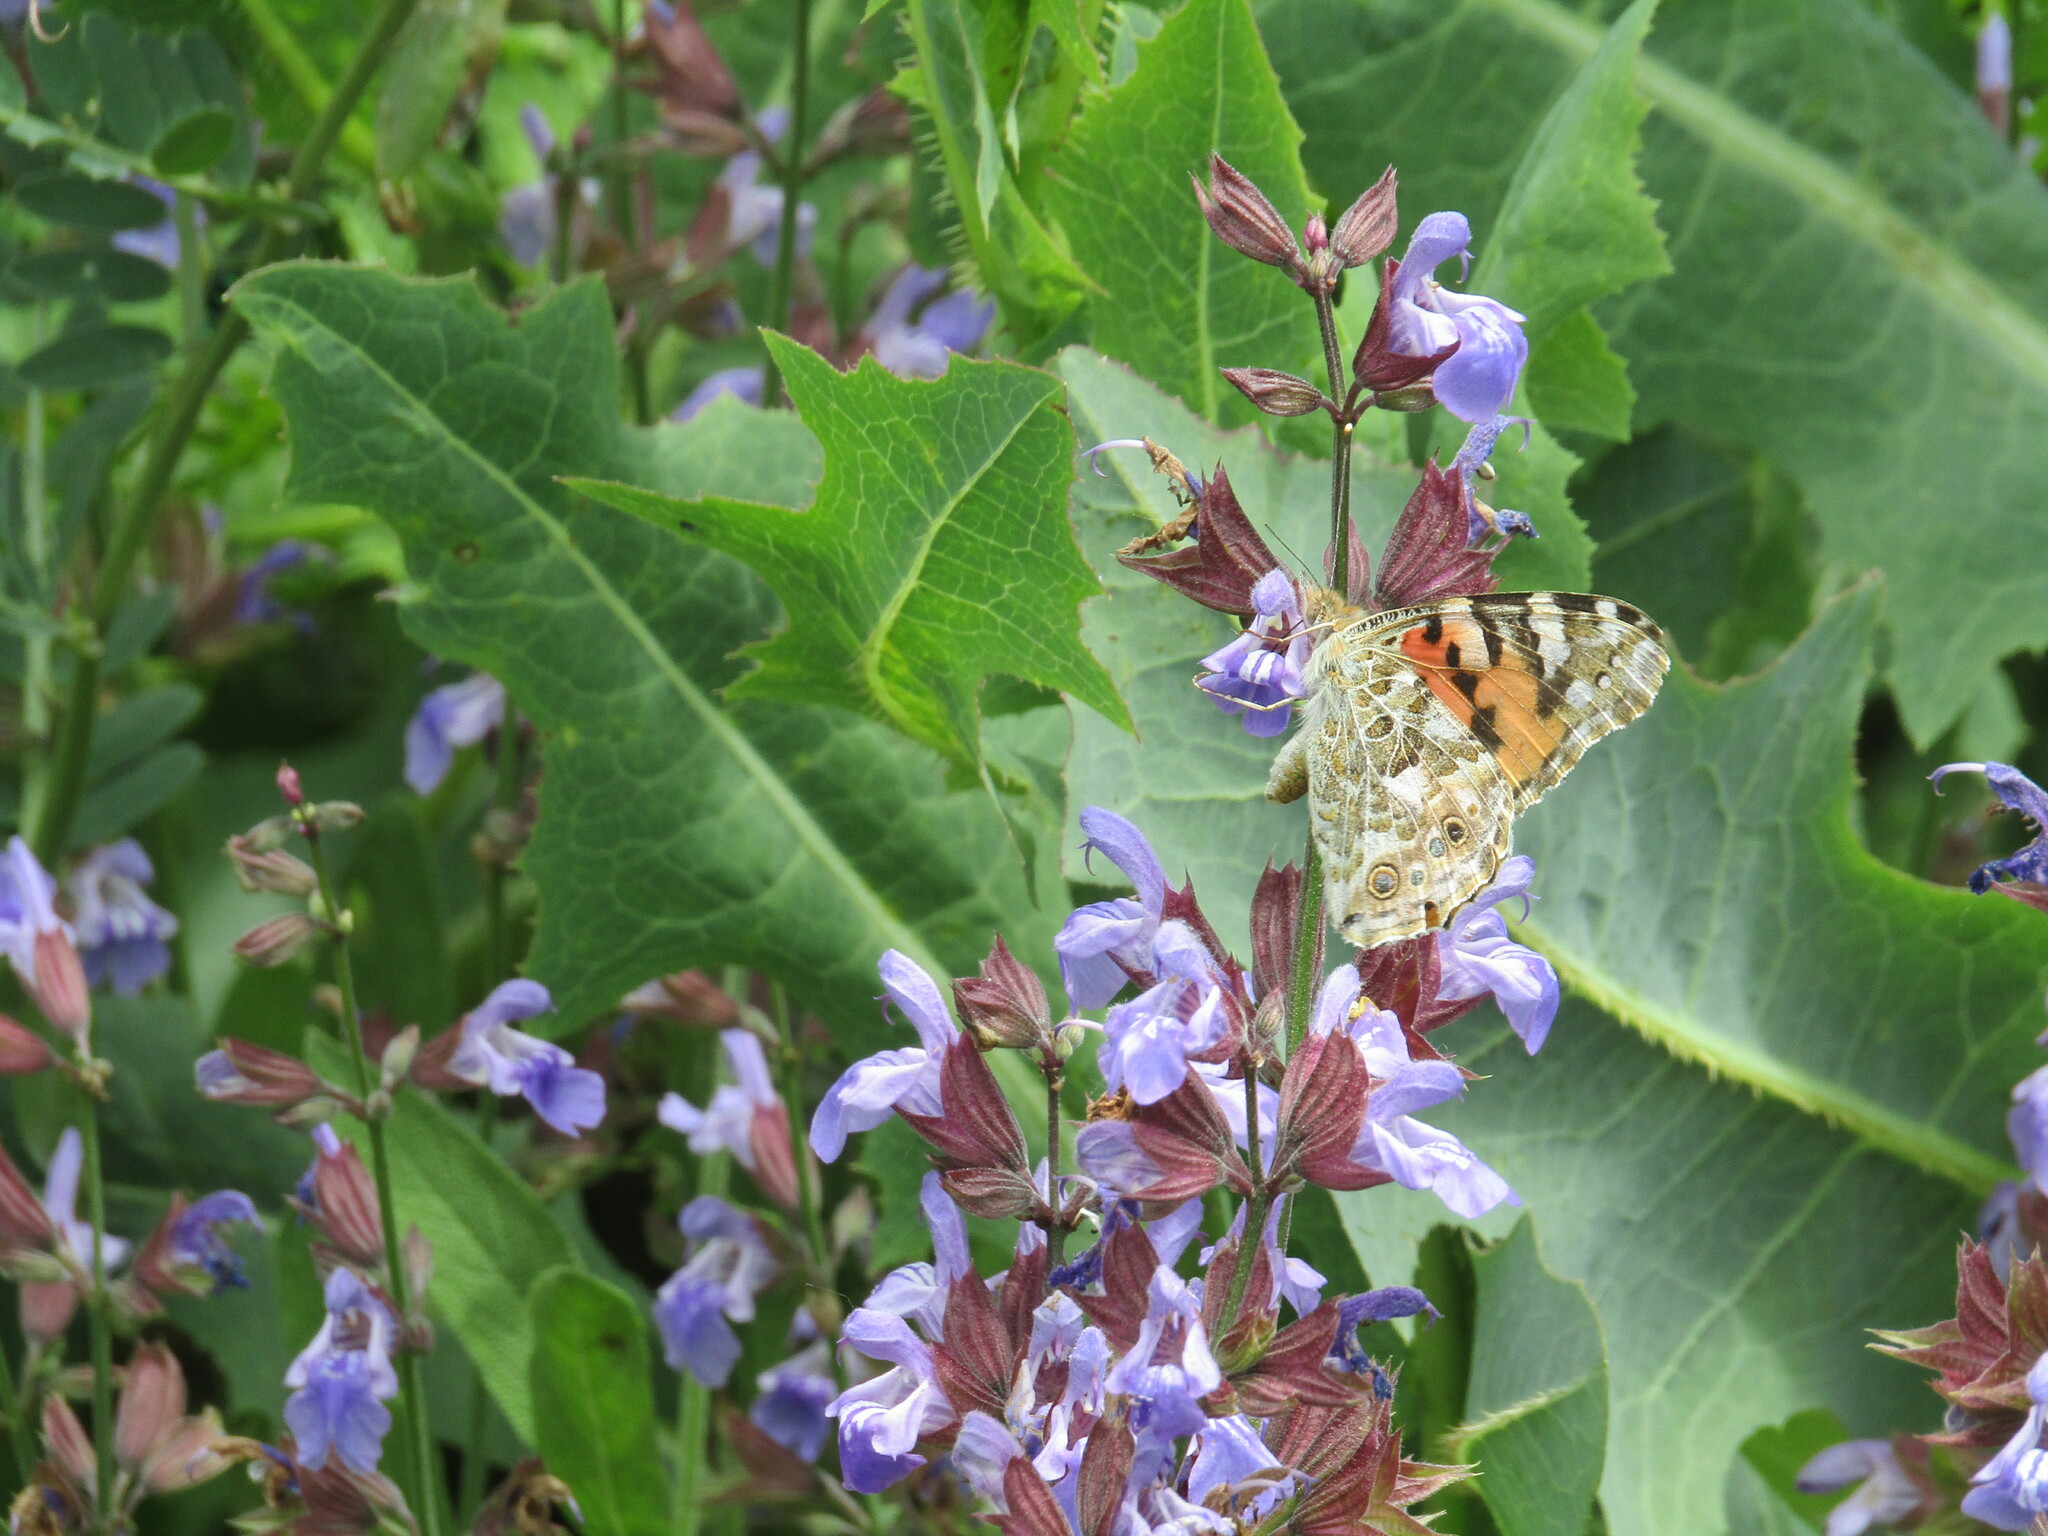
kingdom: Animalia
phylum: Arthropoda
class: Insecta
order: Lepidoptera
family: Nymphalidae
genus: Vanessa
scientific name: Vanessa cardui
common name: Painted lady
